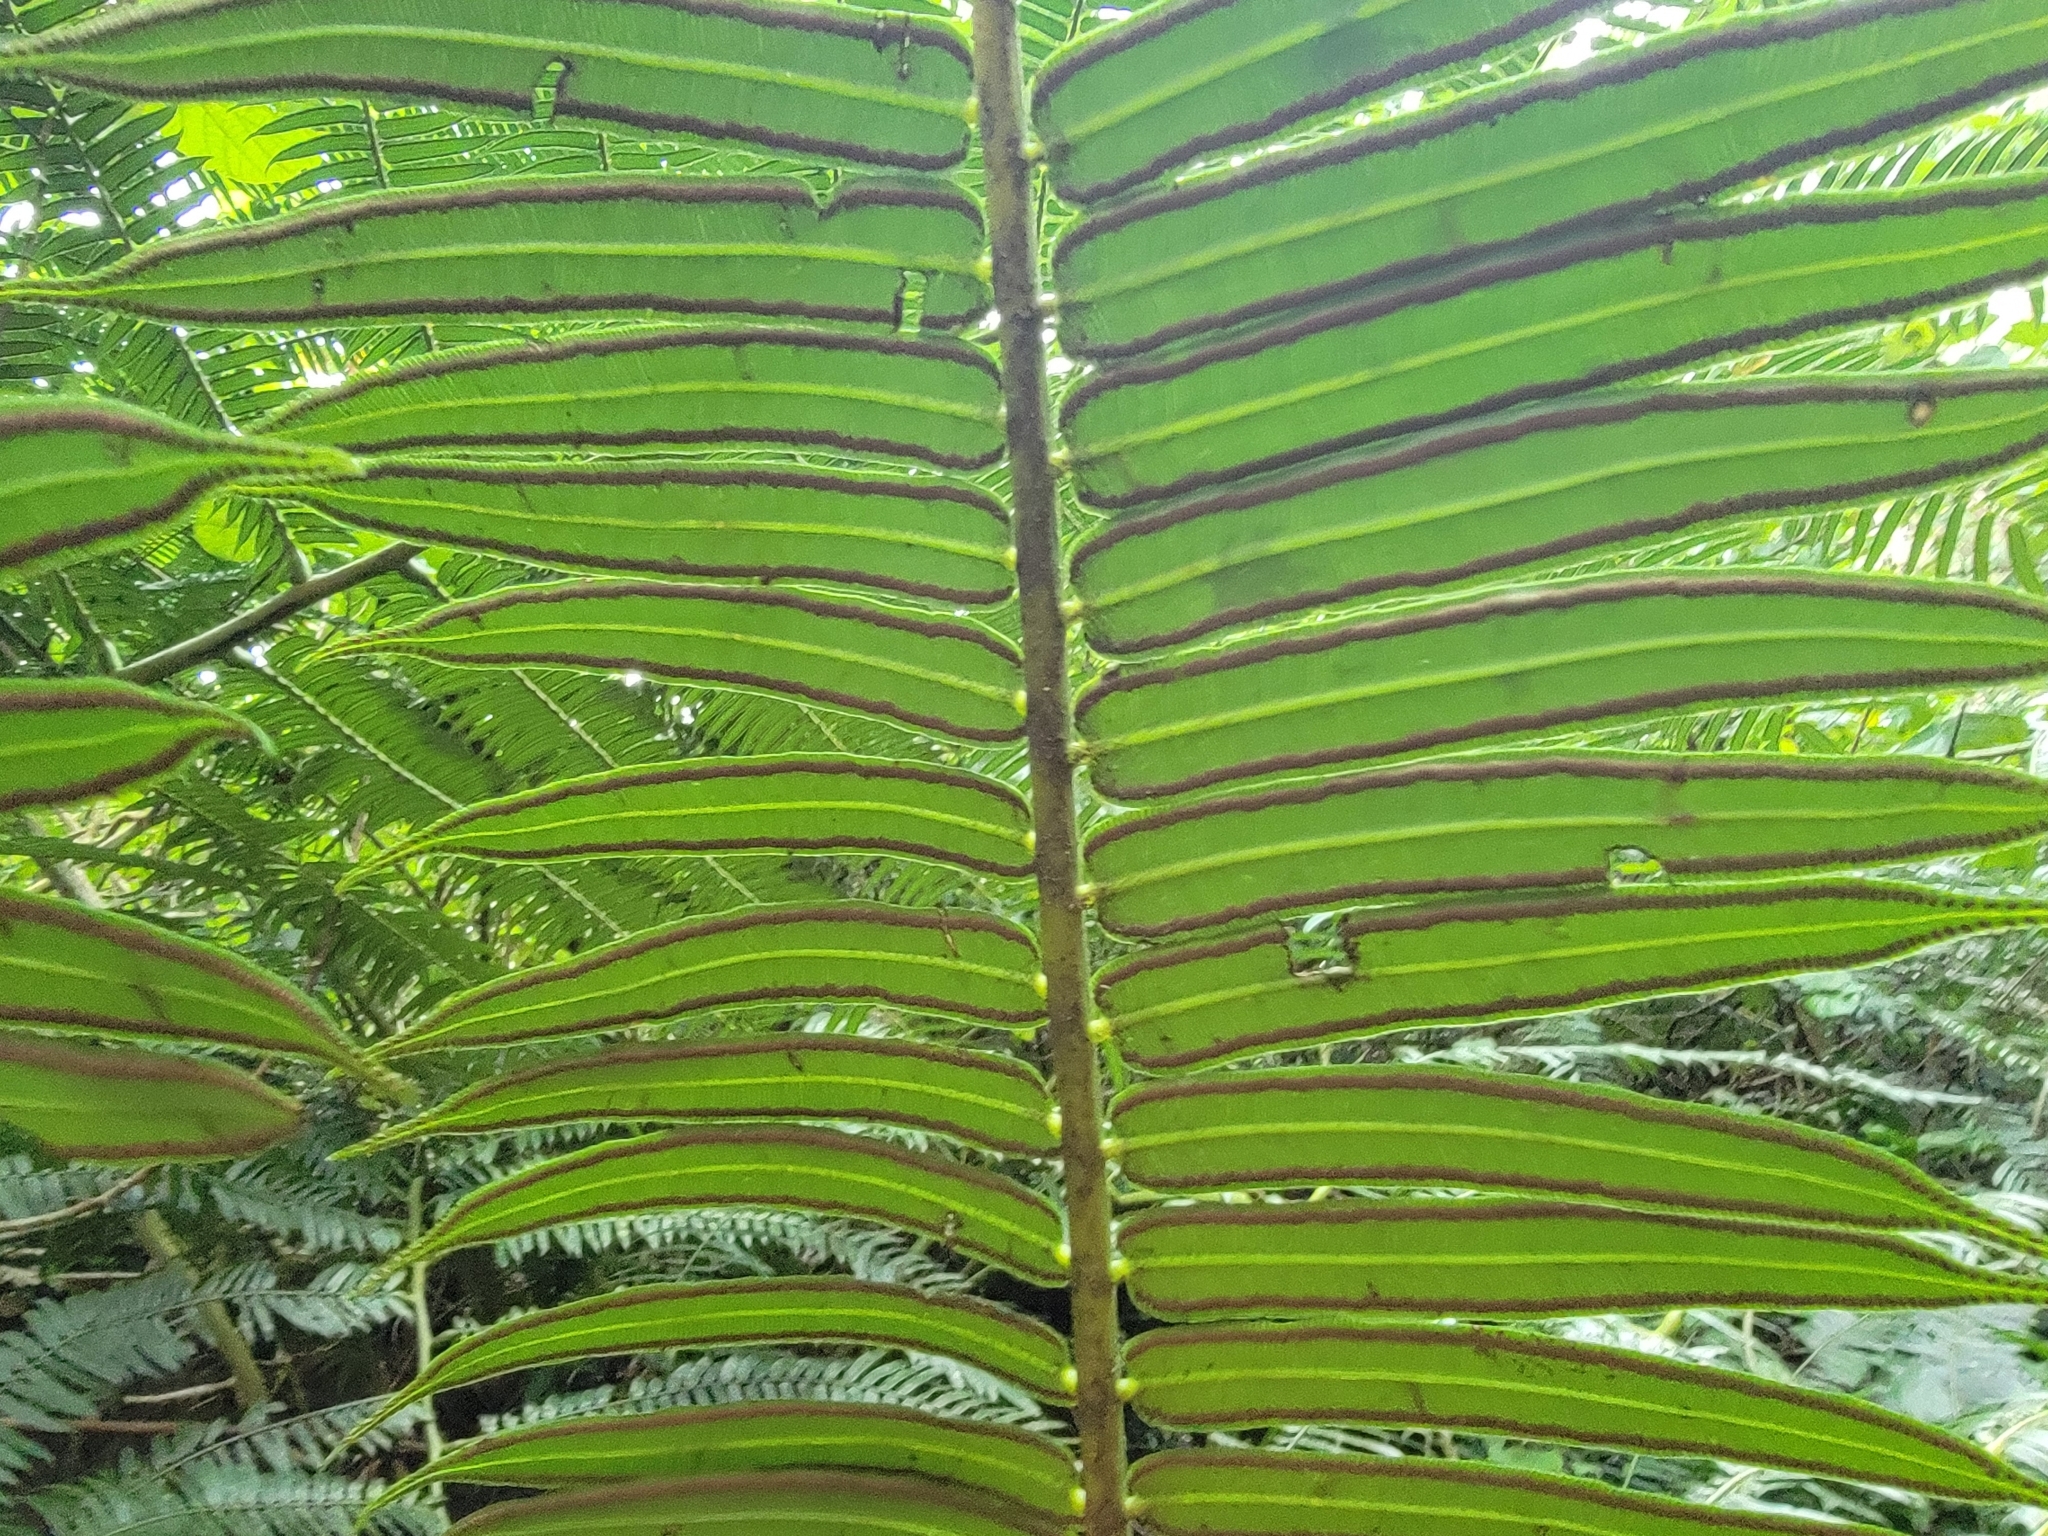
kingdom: Plantae
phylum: Tracheophyta
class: Polypodiopsida
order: Marattiales
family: Marattiaceae
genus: Angiopteris
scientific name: Angiopteris evecta
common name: Mule's-foot fern
